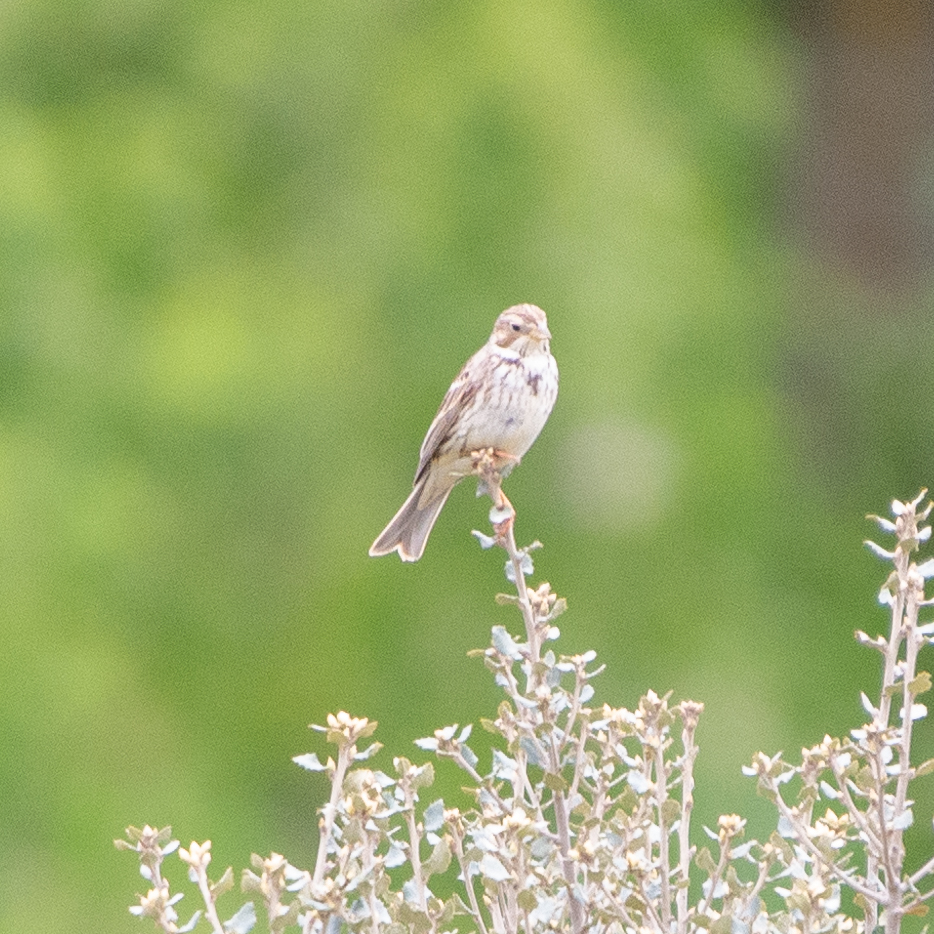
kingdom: Animalia
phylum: Chordata
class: Aves
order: Passeriformes
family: Emberizidae
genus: Emberiza
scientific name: Emberiza calandra
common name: Corn bunting
